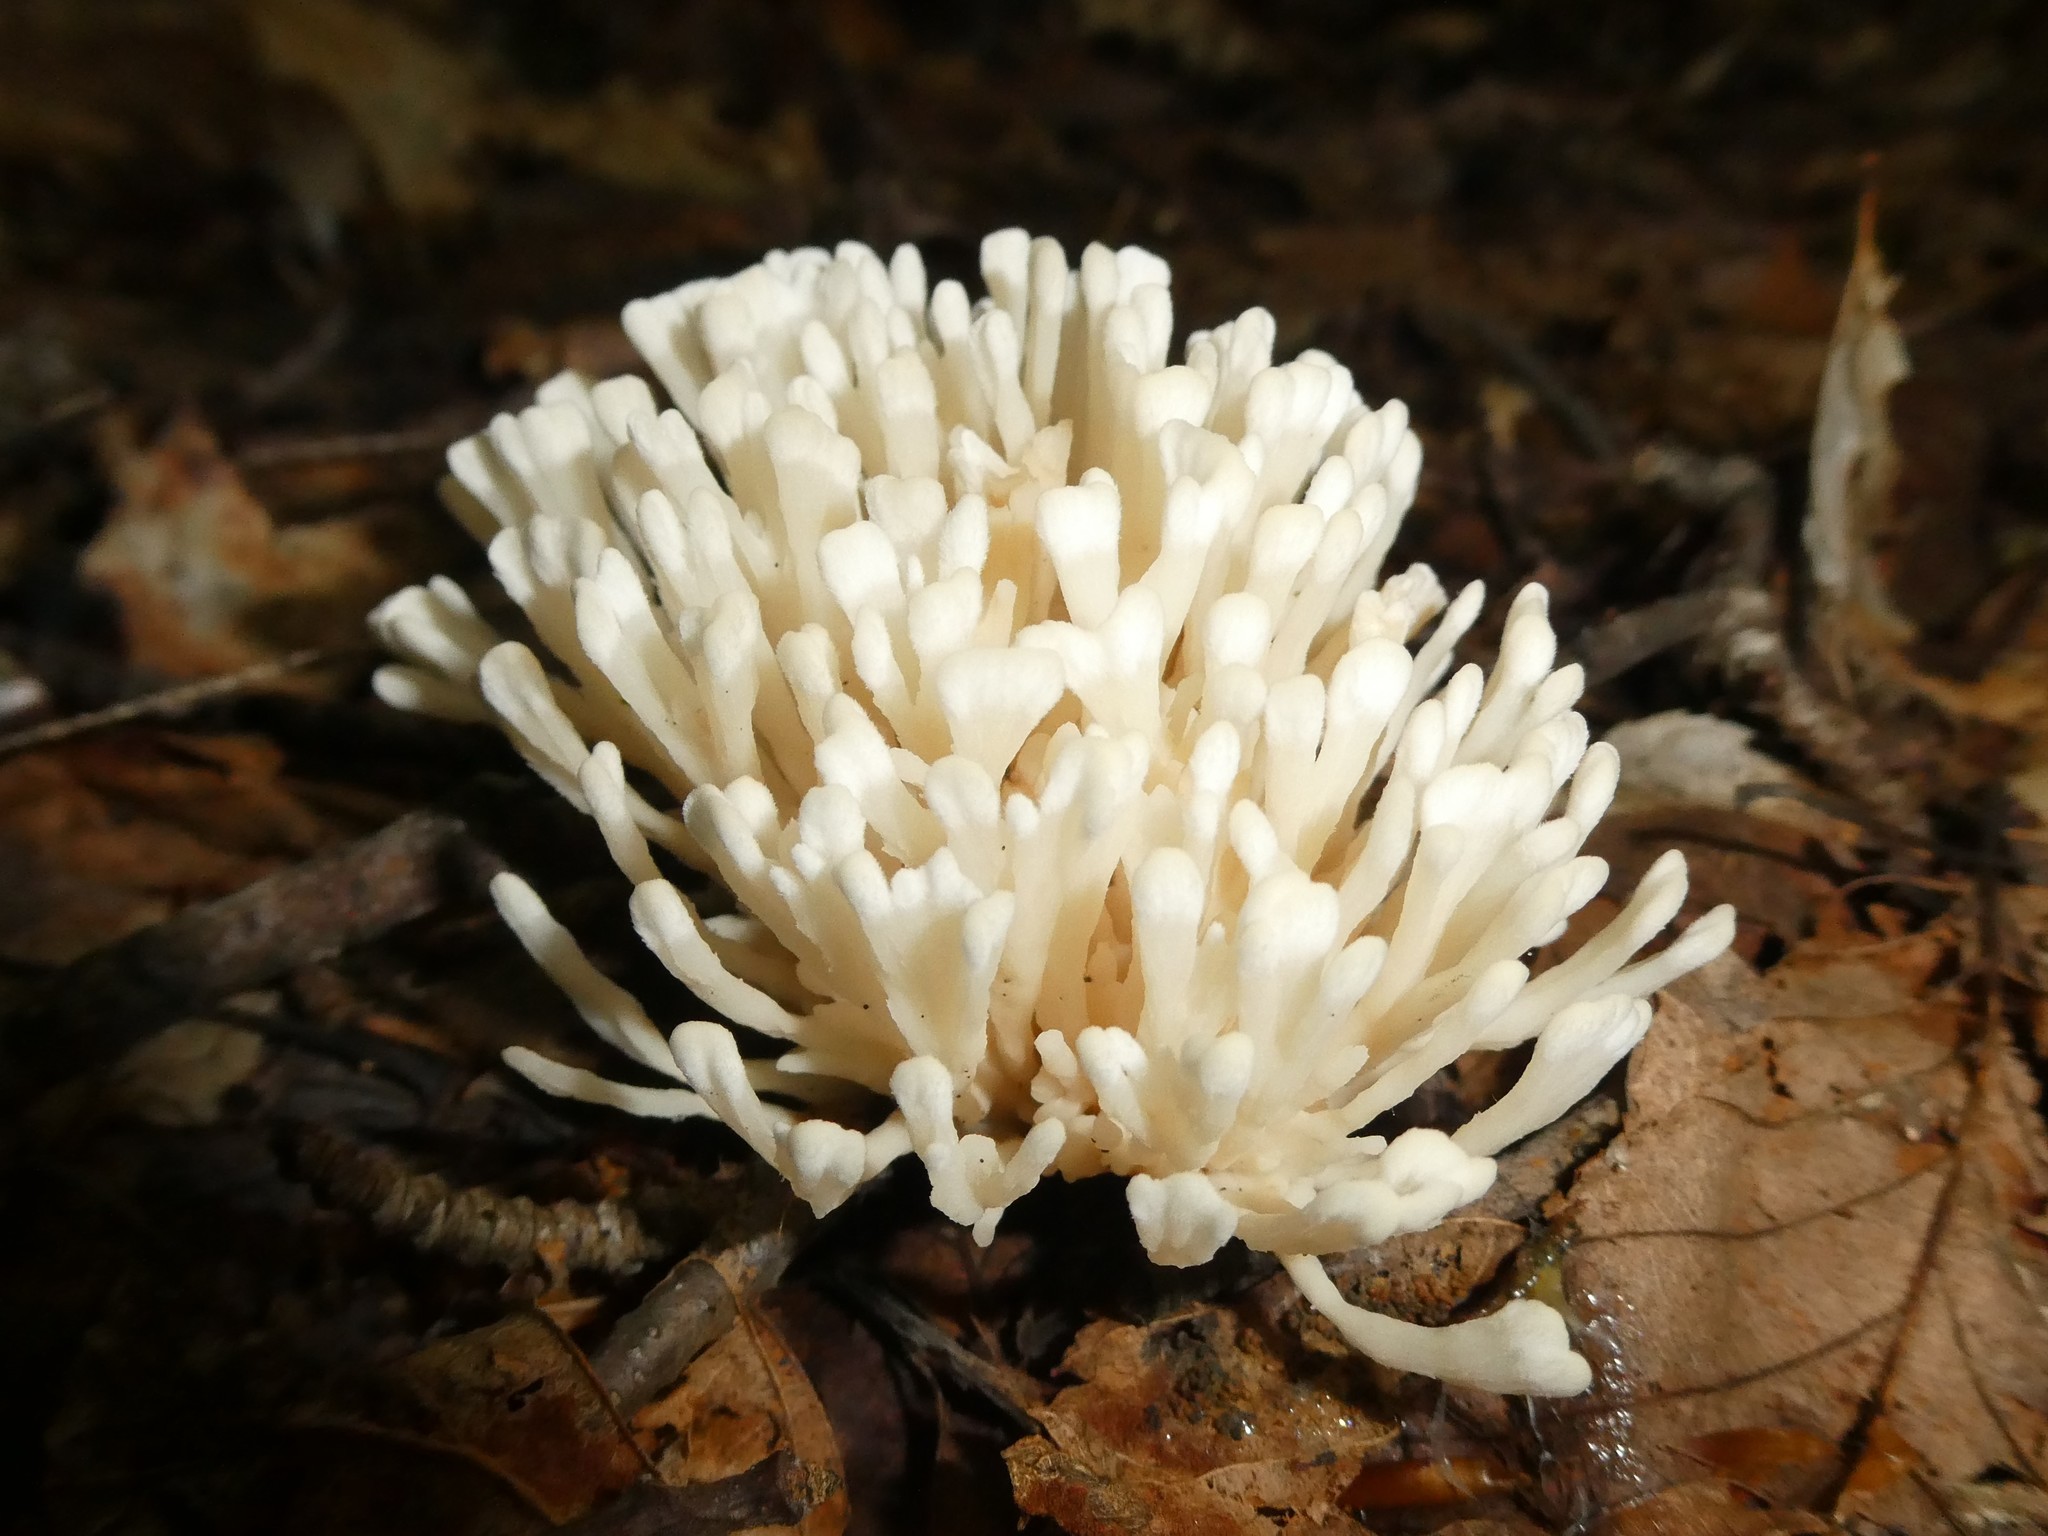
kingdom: Fungi
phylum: Basidiomycota
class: Agaricomycetes
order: Sebacinales
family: Sebacinaceae
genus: Sebacina
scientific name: Sebacina schweinitzii
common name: Jellied false coral fungus
